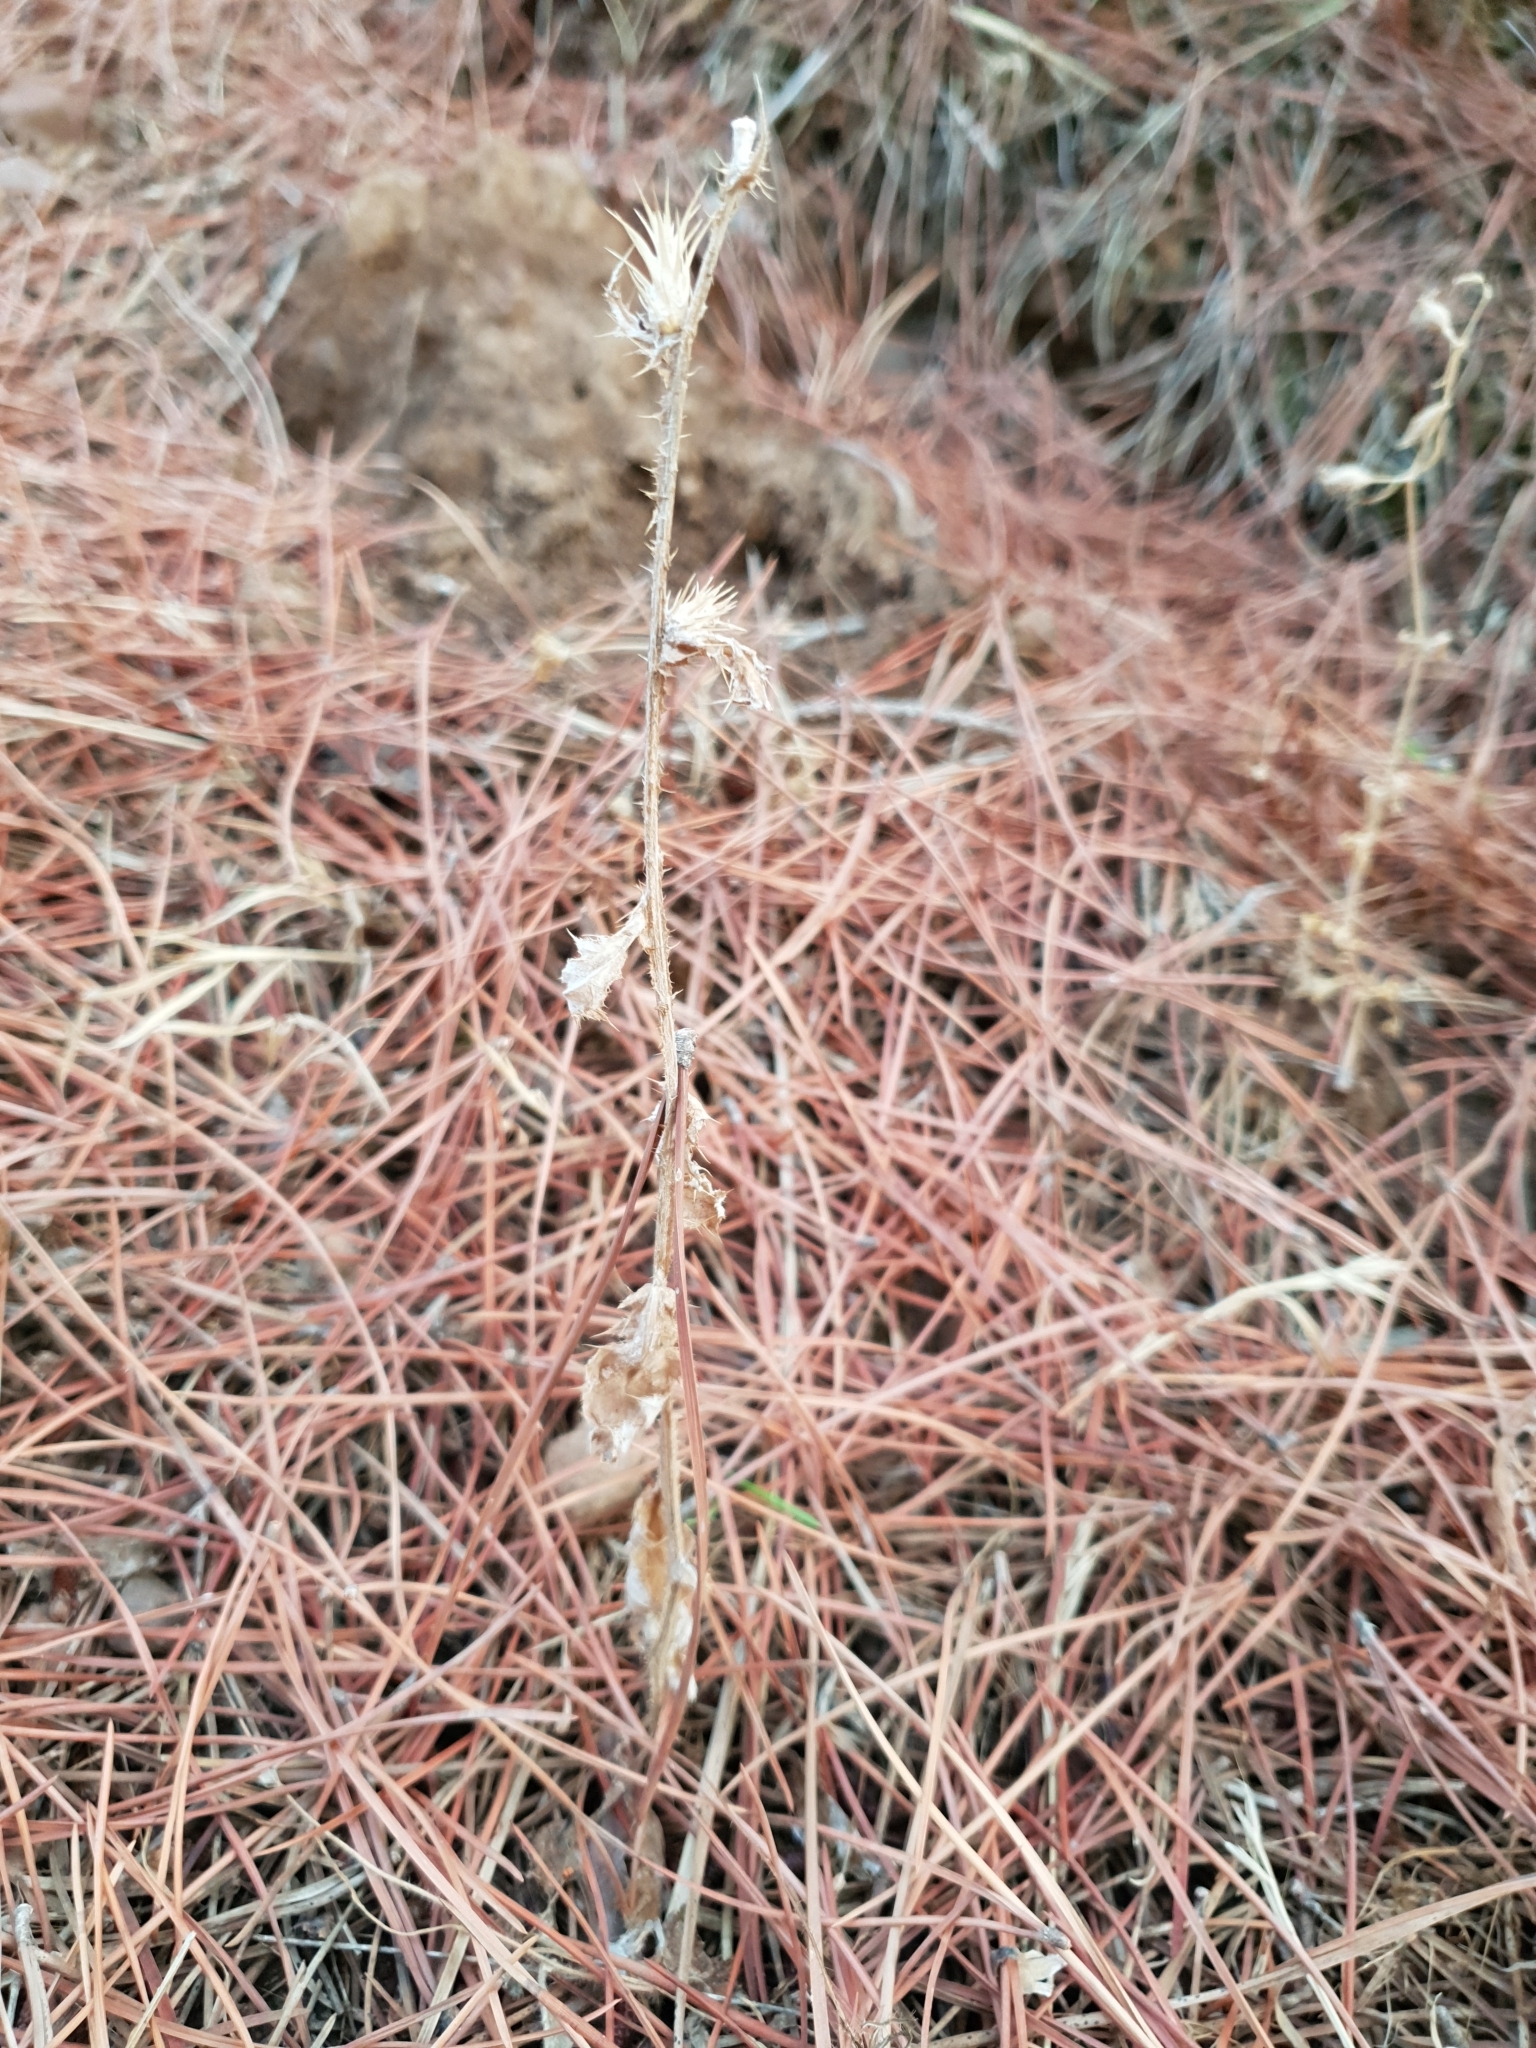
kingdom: Plantae
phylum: Tracheophyta
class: Magnoliopsida
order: Asterales
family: Asteraceae
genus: Carduus
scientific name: Carduus pycnocephalus
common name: Plymouth thistle
